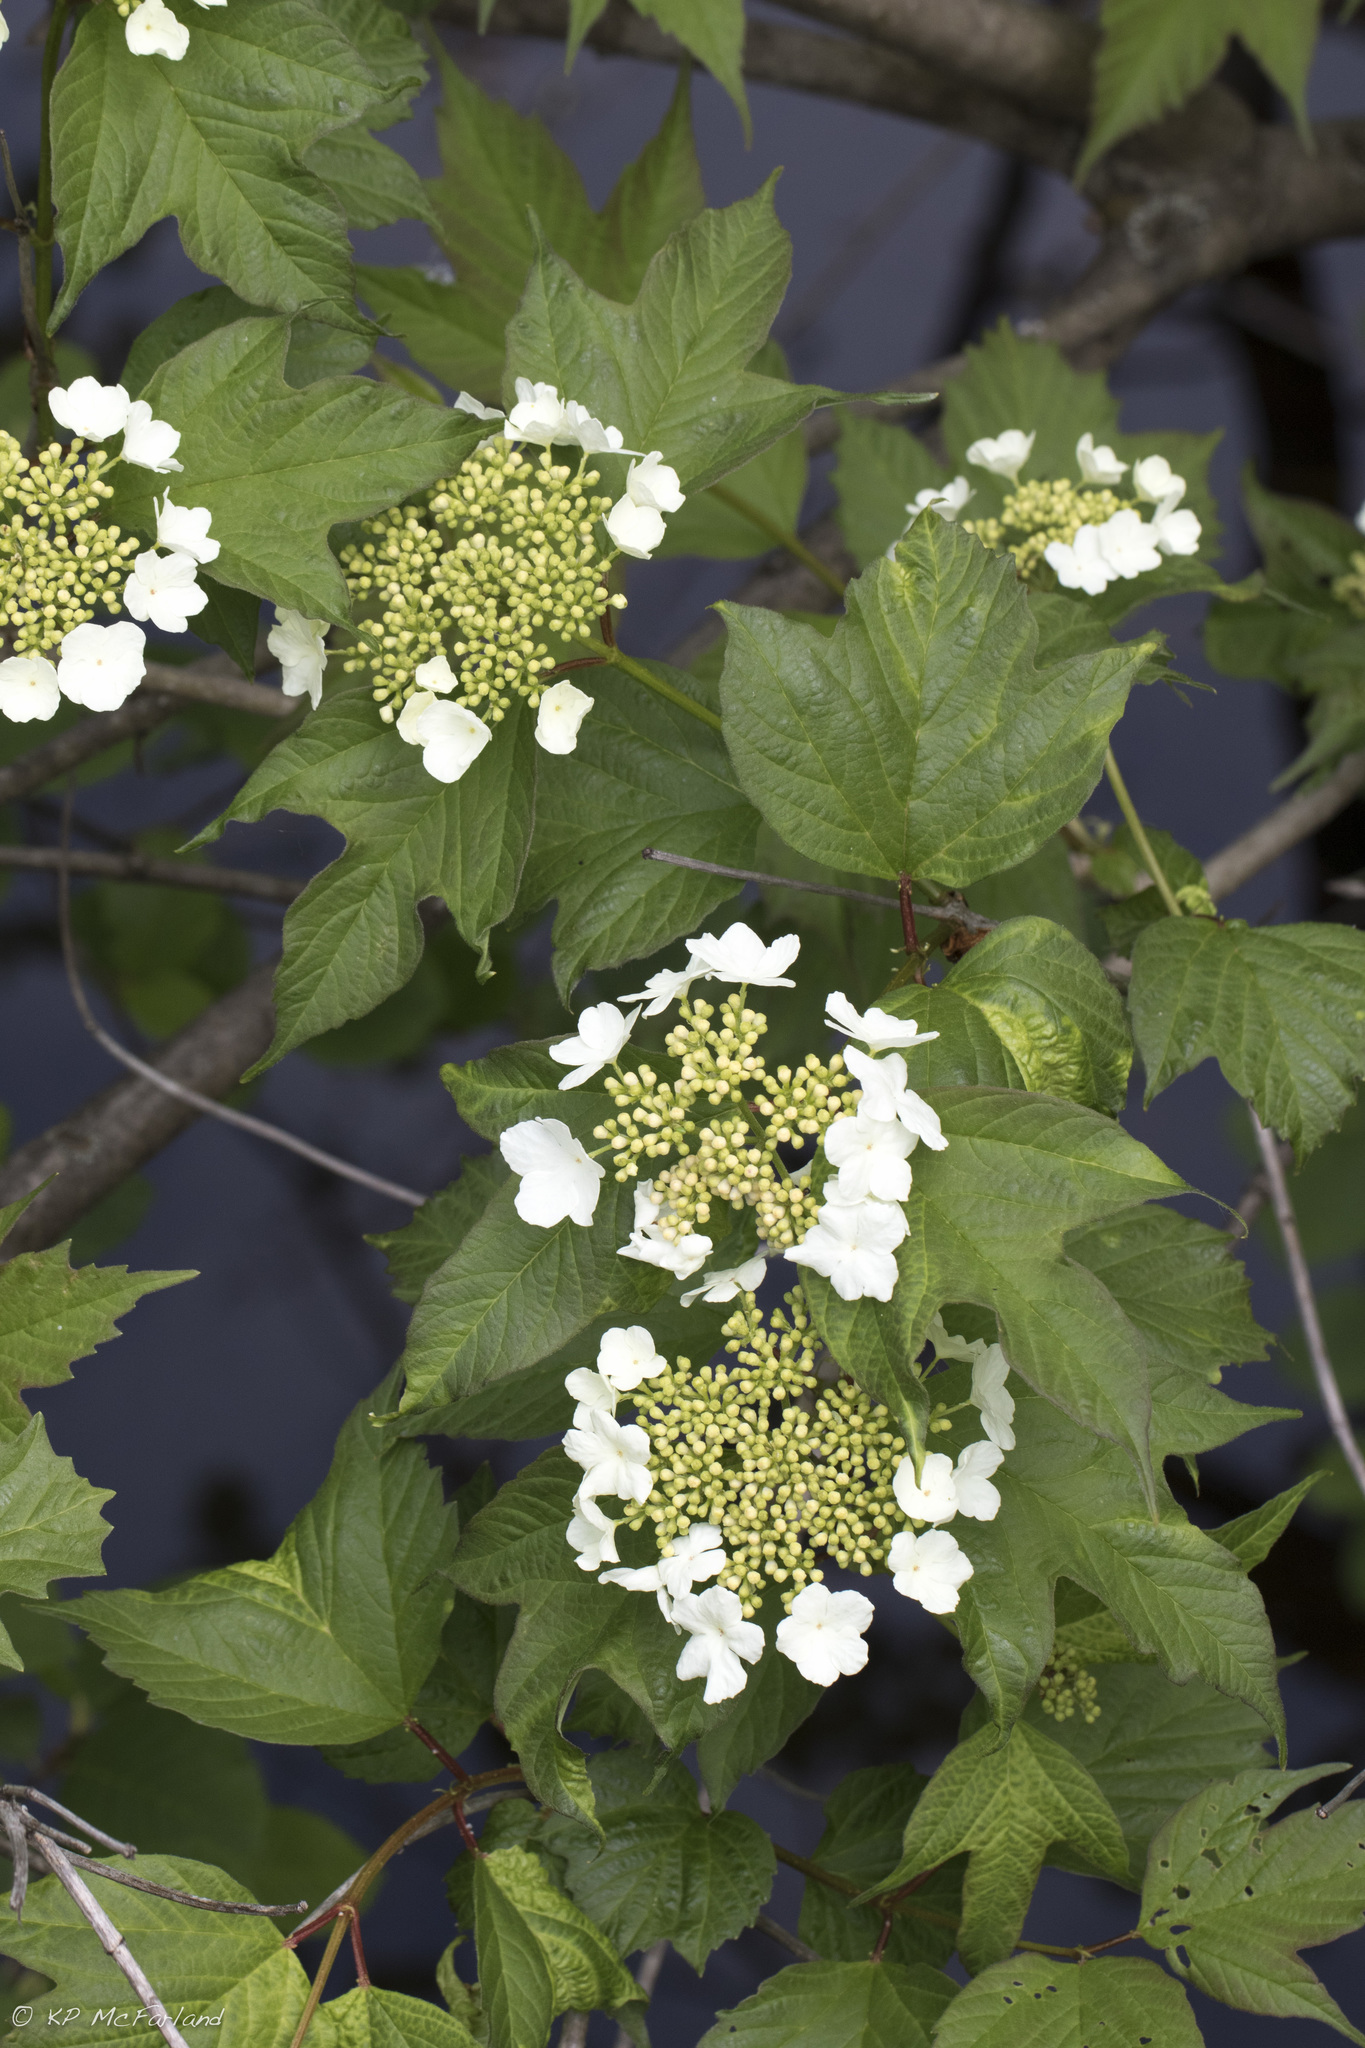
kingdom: Plantae
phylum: Tracheophyta
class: Magnoliopsida
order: Dipsacales
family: Viburnaceae
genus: Viburnum
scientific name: Viburnum opulus
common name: Guelder-rose
